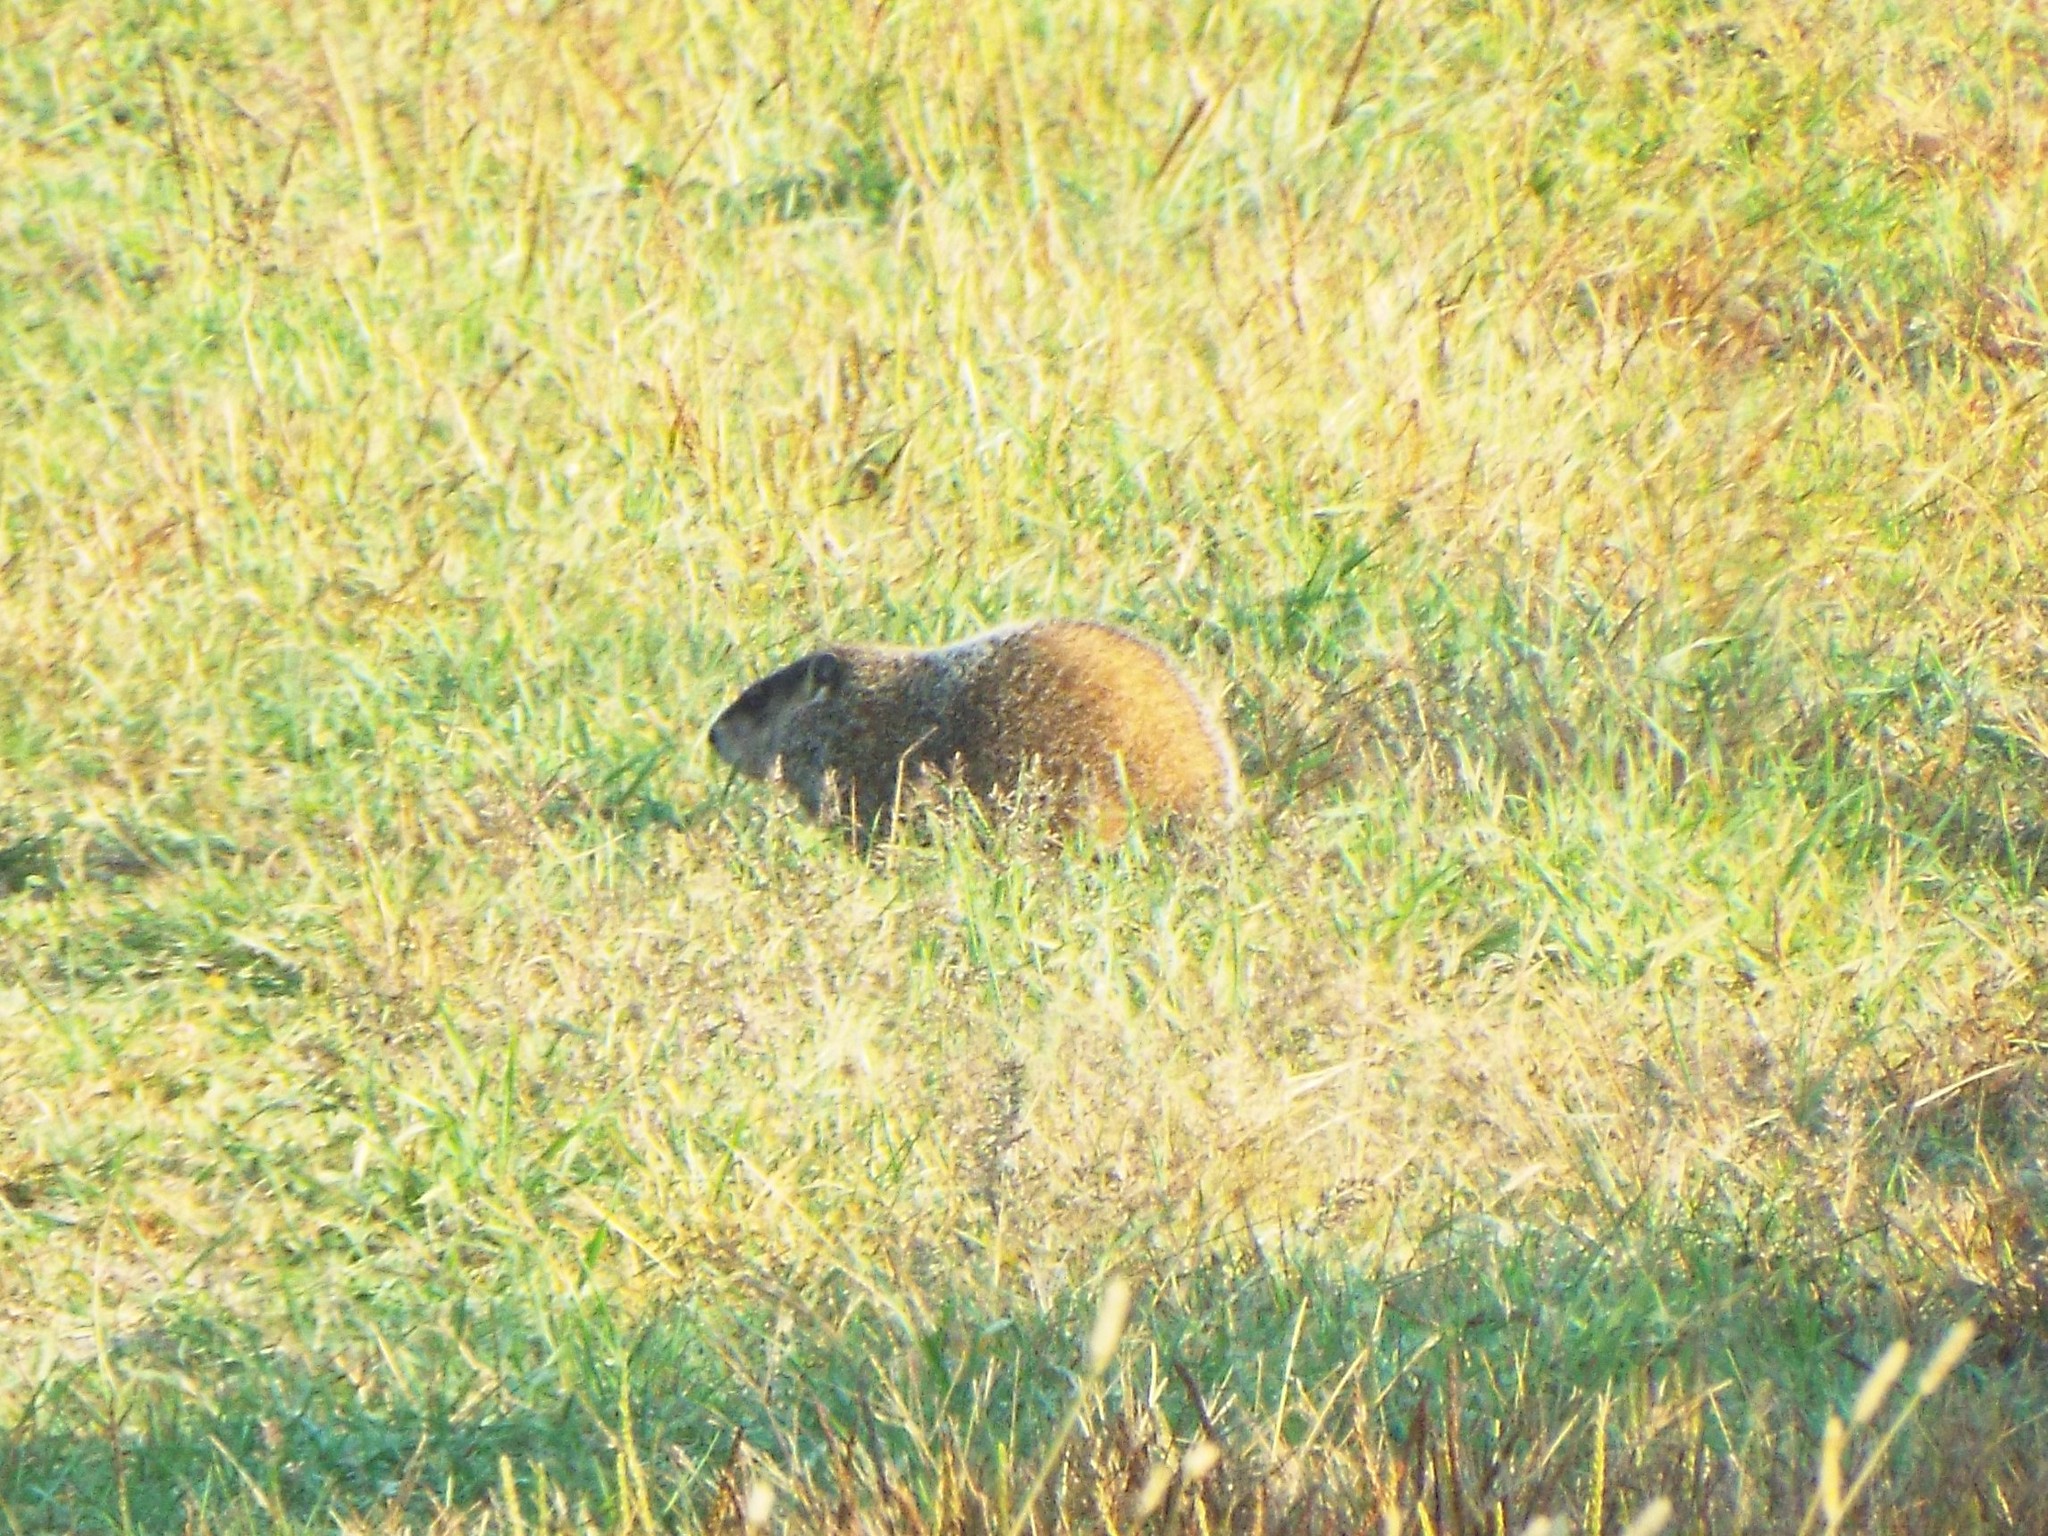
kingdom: Animalia
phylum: Chordata
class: Mammalia
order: Rodentia
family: Sciuridae
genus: Marmota
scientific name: Marmota monax
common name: Groundhog
